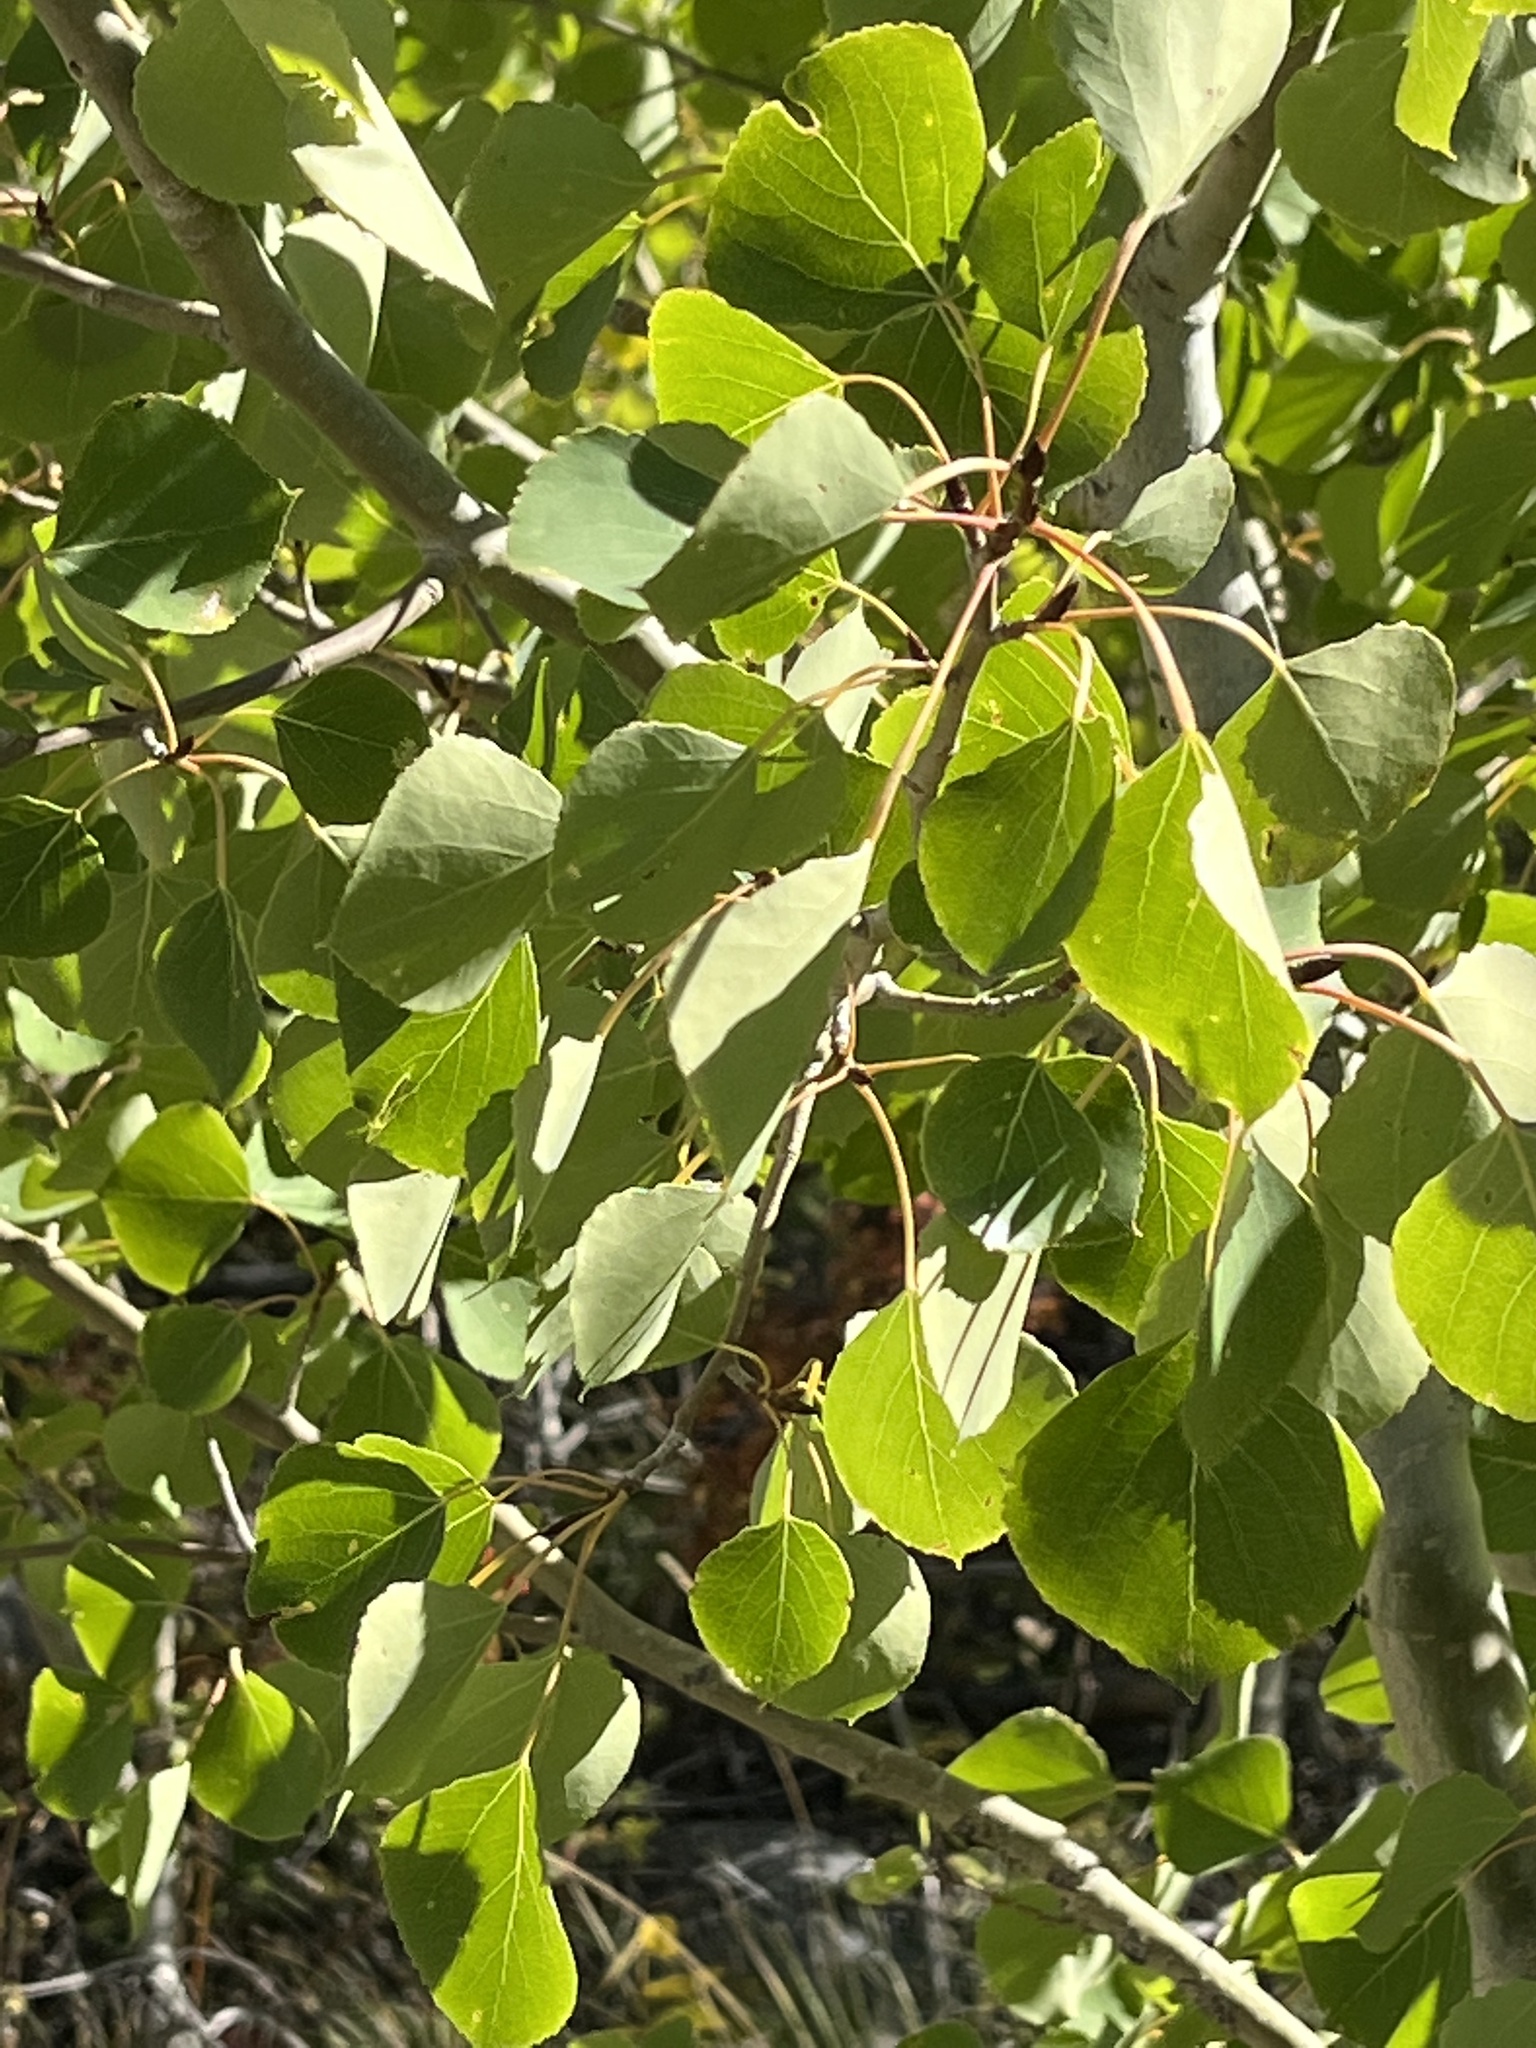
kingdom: Plantae
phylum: Tracheophyta
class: Magnoliopsida
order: Malpighiales
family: Salicaceae
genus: Populus
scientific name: Populus tremuloides
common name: Quaking aspen
